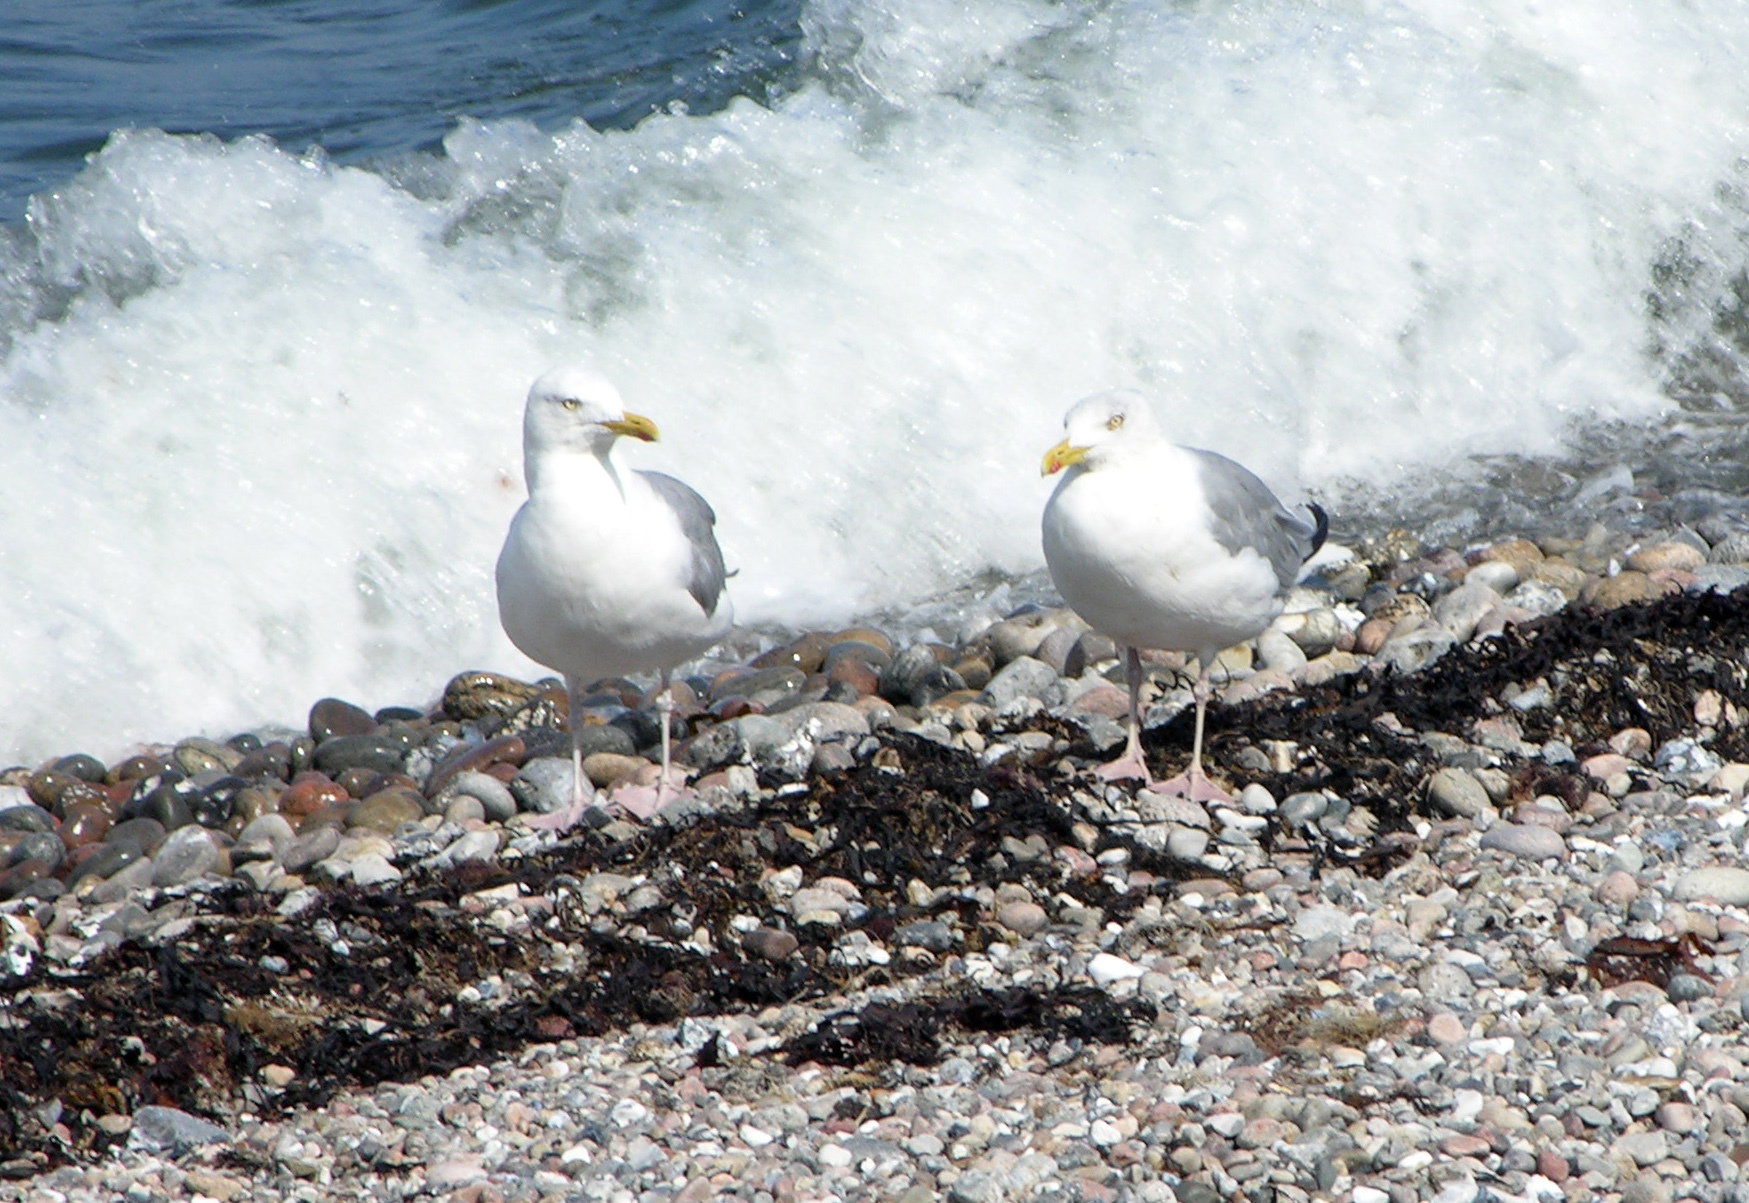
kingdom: Animalia
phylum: Chordata
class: Aves
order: Charadriiformes
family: Laridae
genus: Larus
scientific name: Larus argentatus
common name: Herring gull
